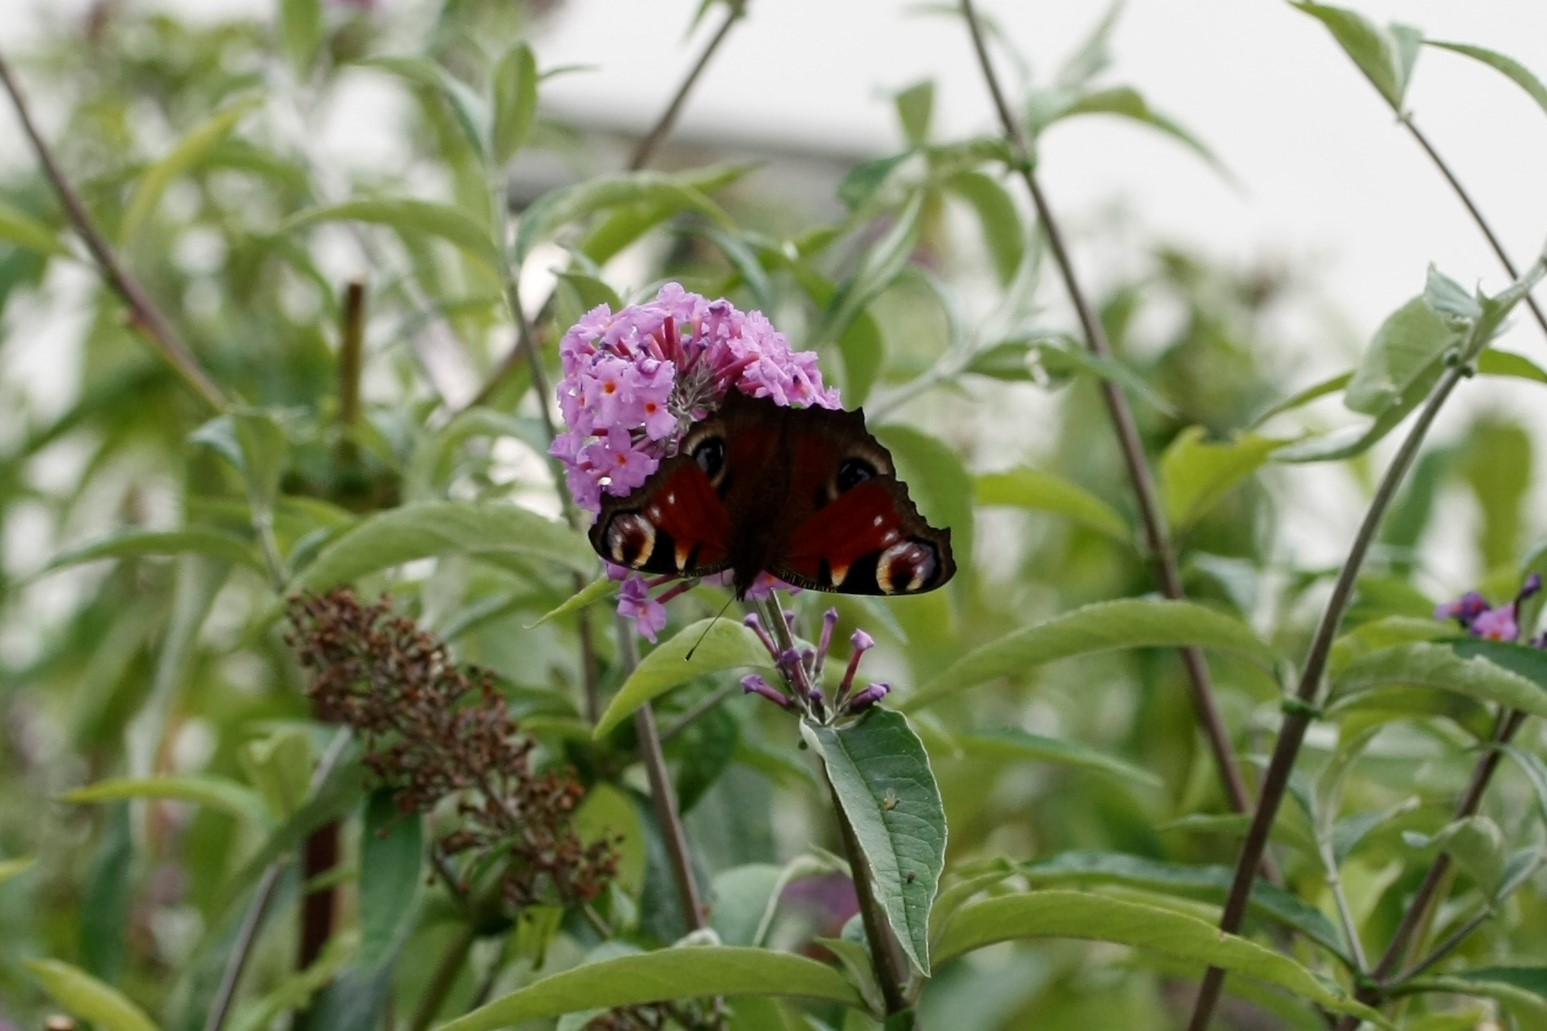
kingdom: Animalia
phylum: Arthropoda
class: Insecta
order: Lepidoptera
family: Nymphalidae
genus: Aglais
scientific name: Aglais io
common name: Peacock
